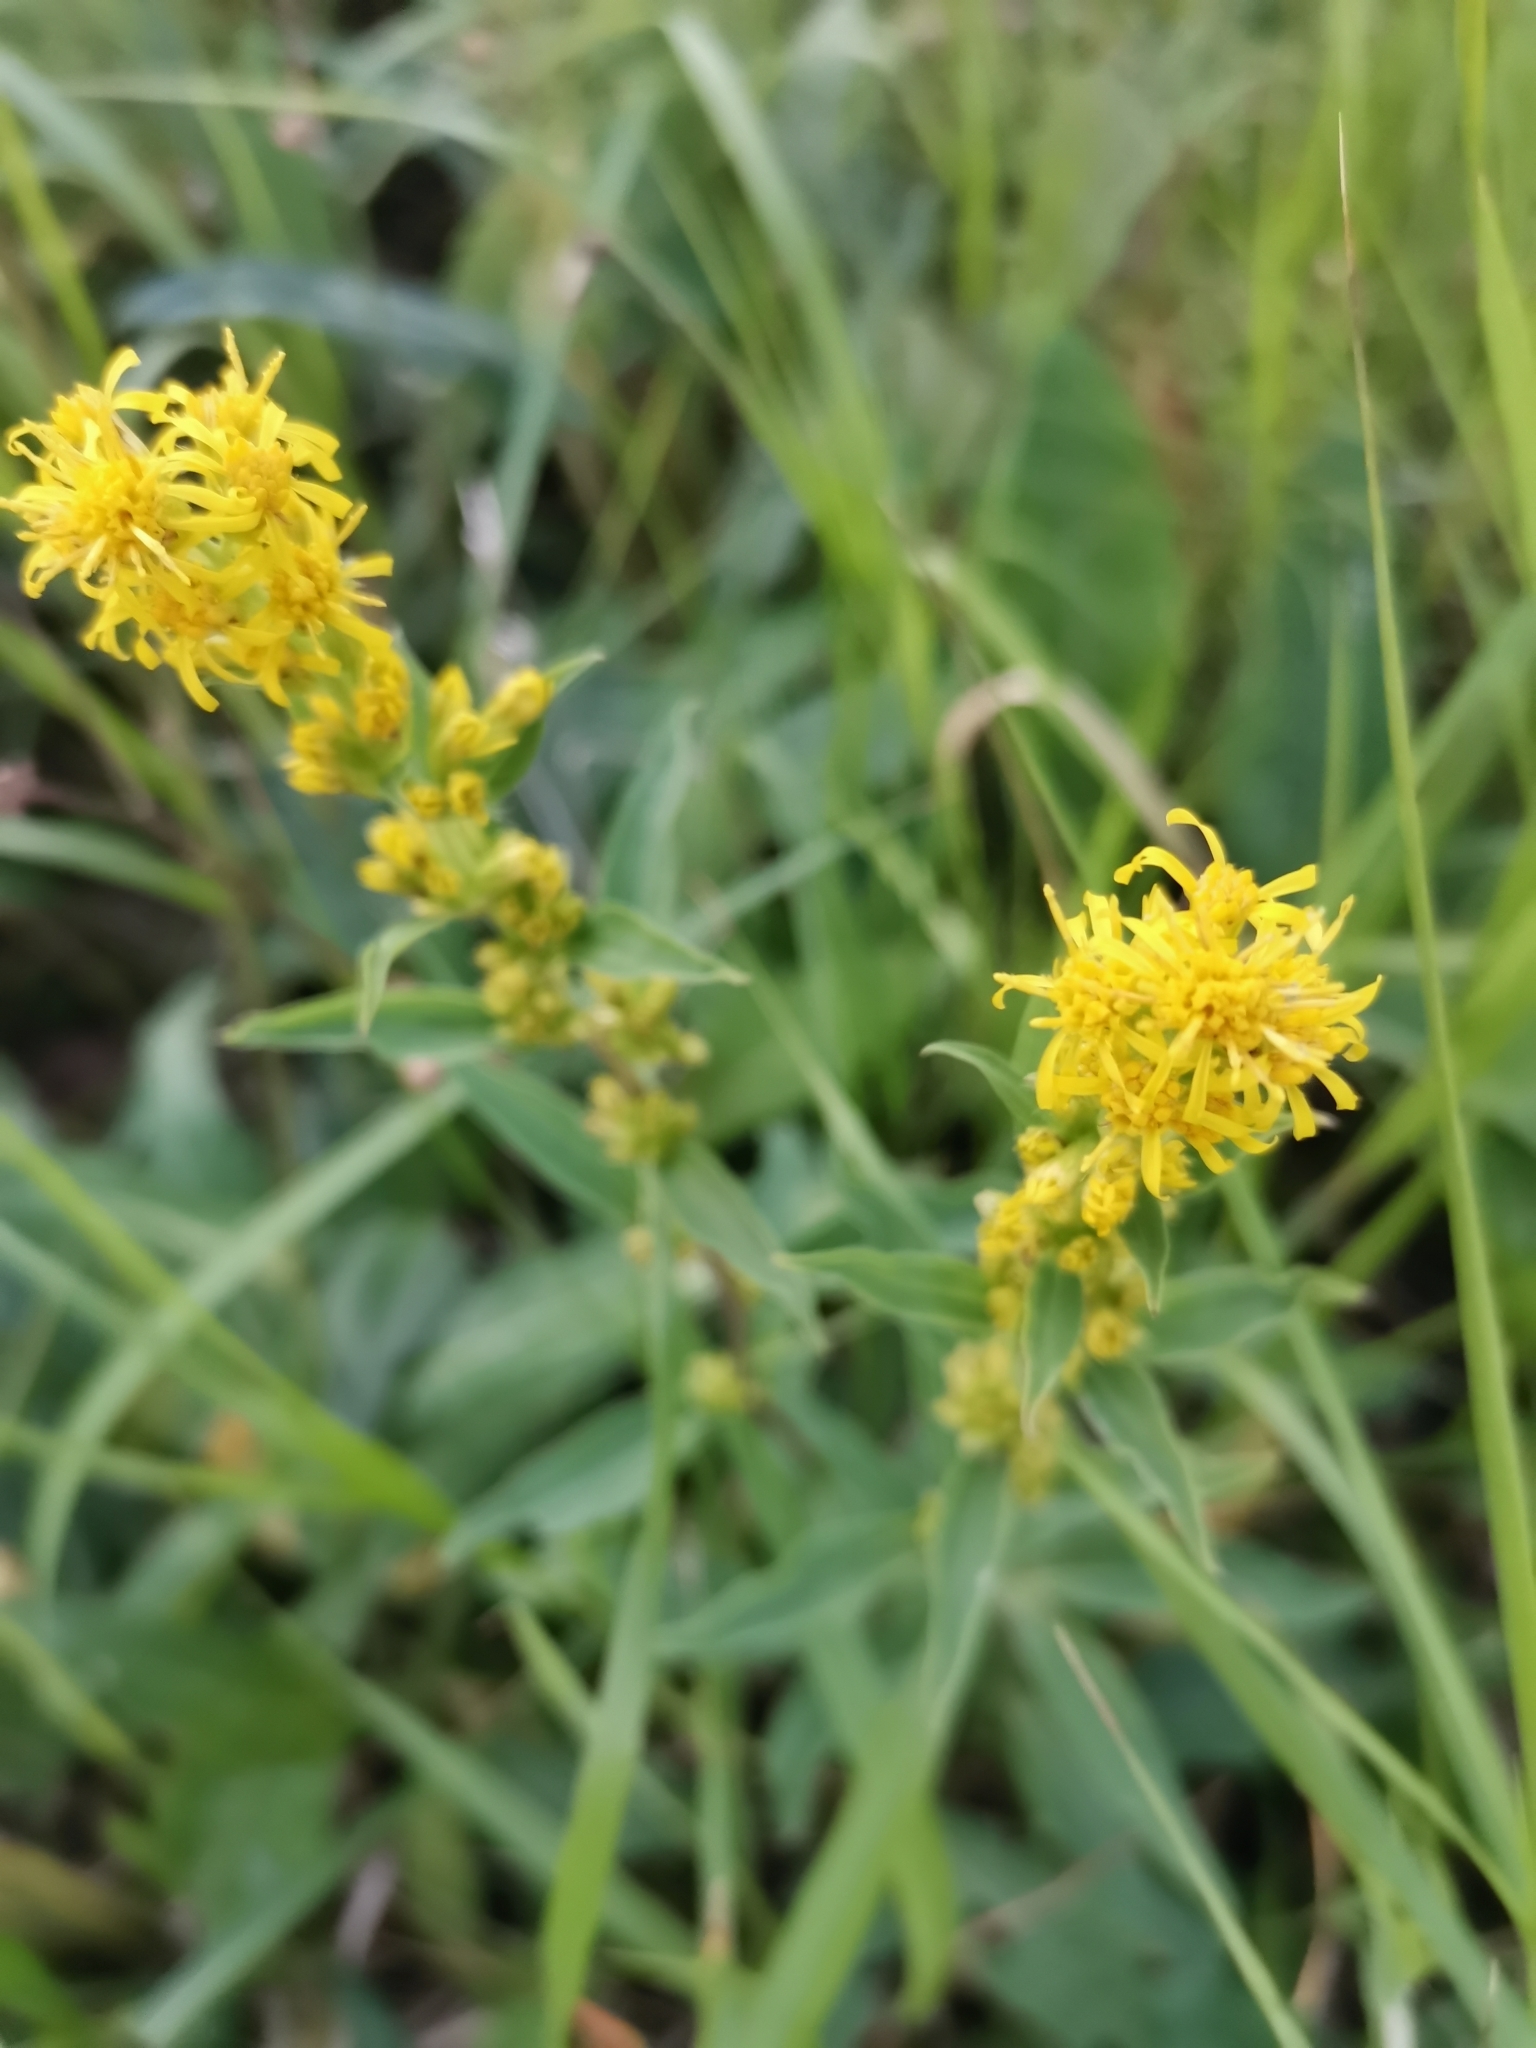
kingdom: Plantae
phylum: Tracheophyta
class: Magnoliopsida
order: Asterales
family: Asteraceae
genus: Solidago
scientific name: Solidago virgaurea
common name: Goldenrod
